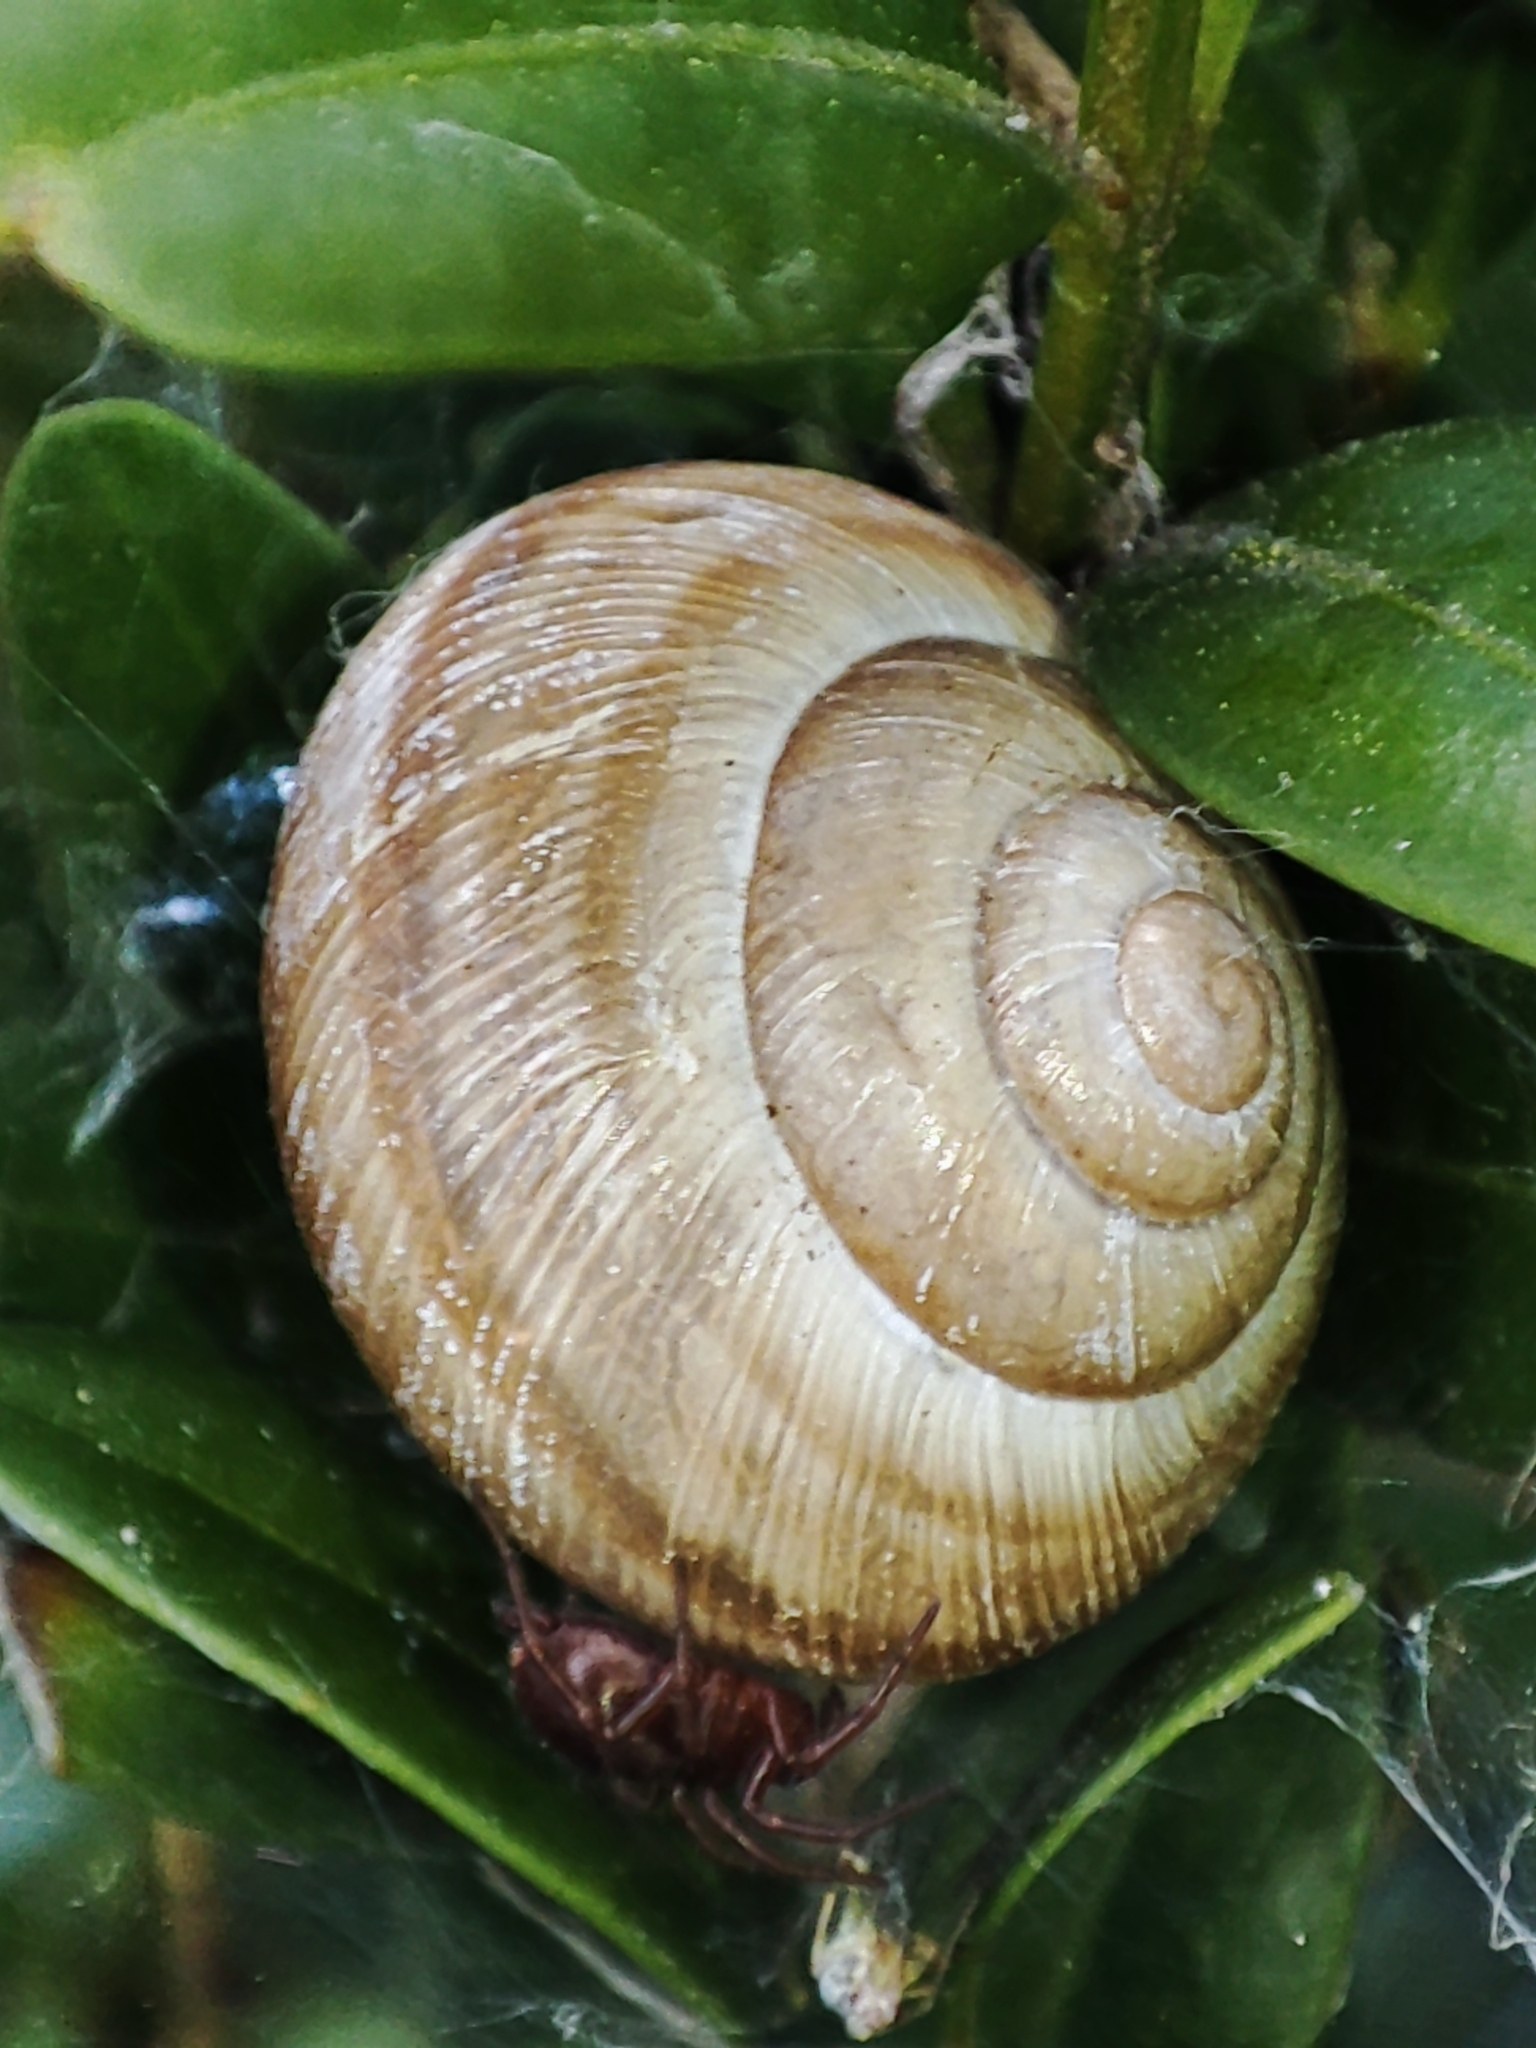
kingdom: Animalia
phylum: Mollusca
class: Gastropoda
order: Stylommatophora
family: Helicidae
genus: Caucasotachea
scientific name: Caucasotachea vindobonensis
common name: European helicid land snail
